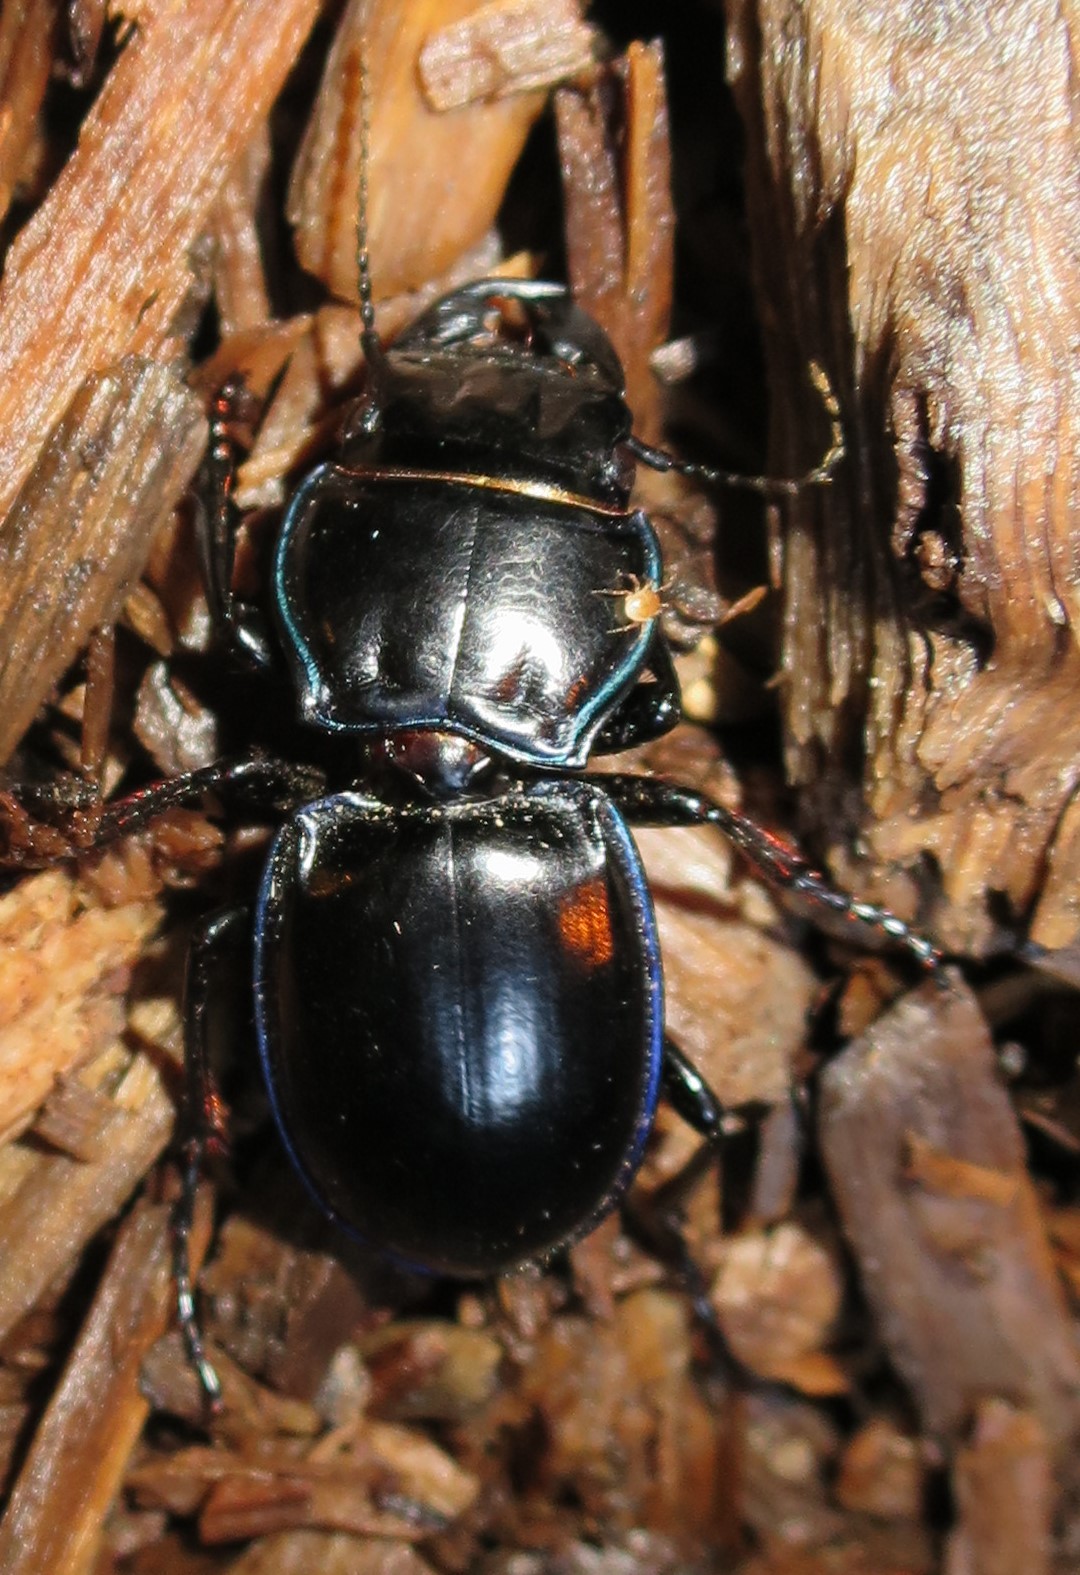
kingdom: Animalia
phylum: Arthropoda
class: Insecta
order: Coleoptera
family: Carabidae
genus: Pasimachus
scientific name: Pasimachus elongatus
